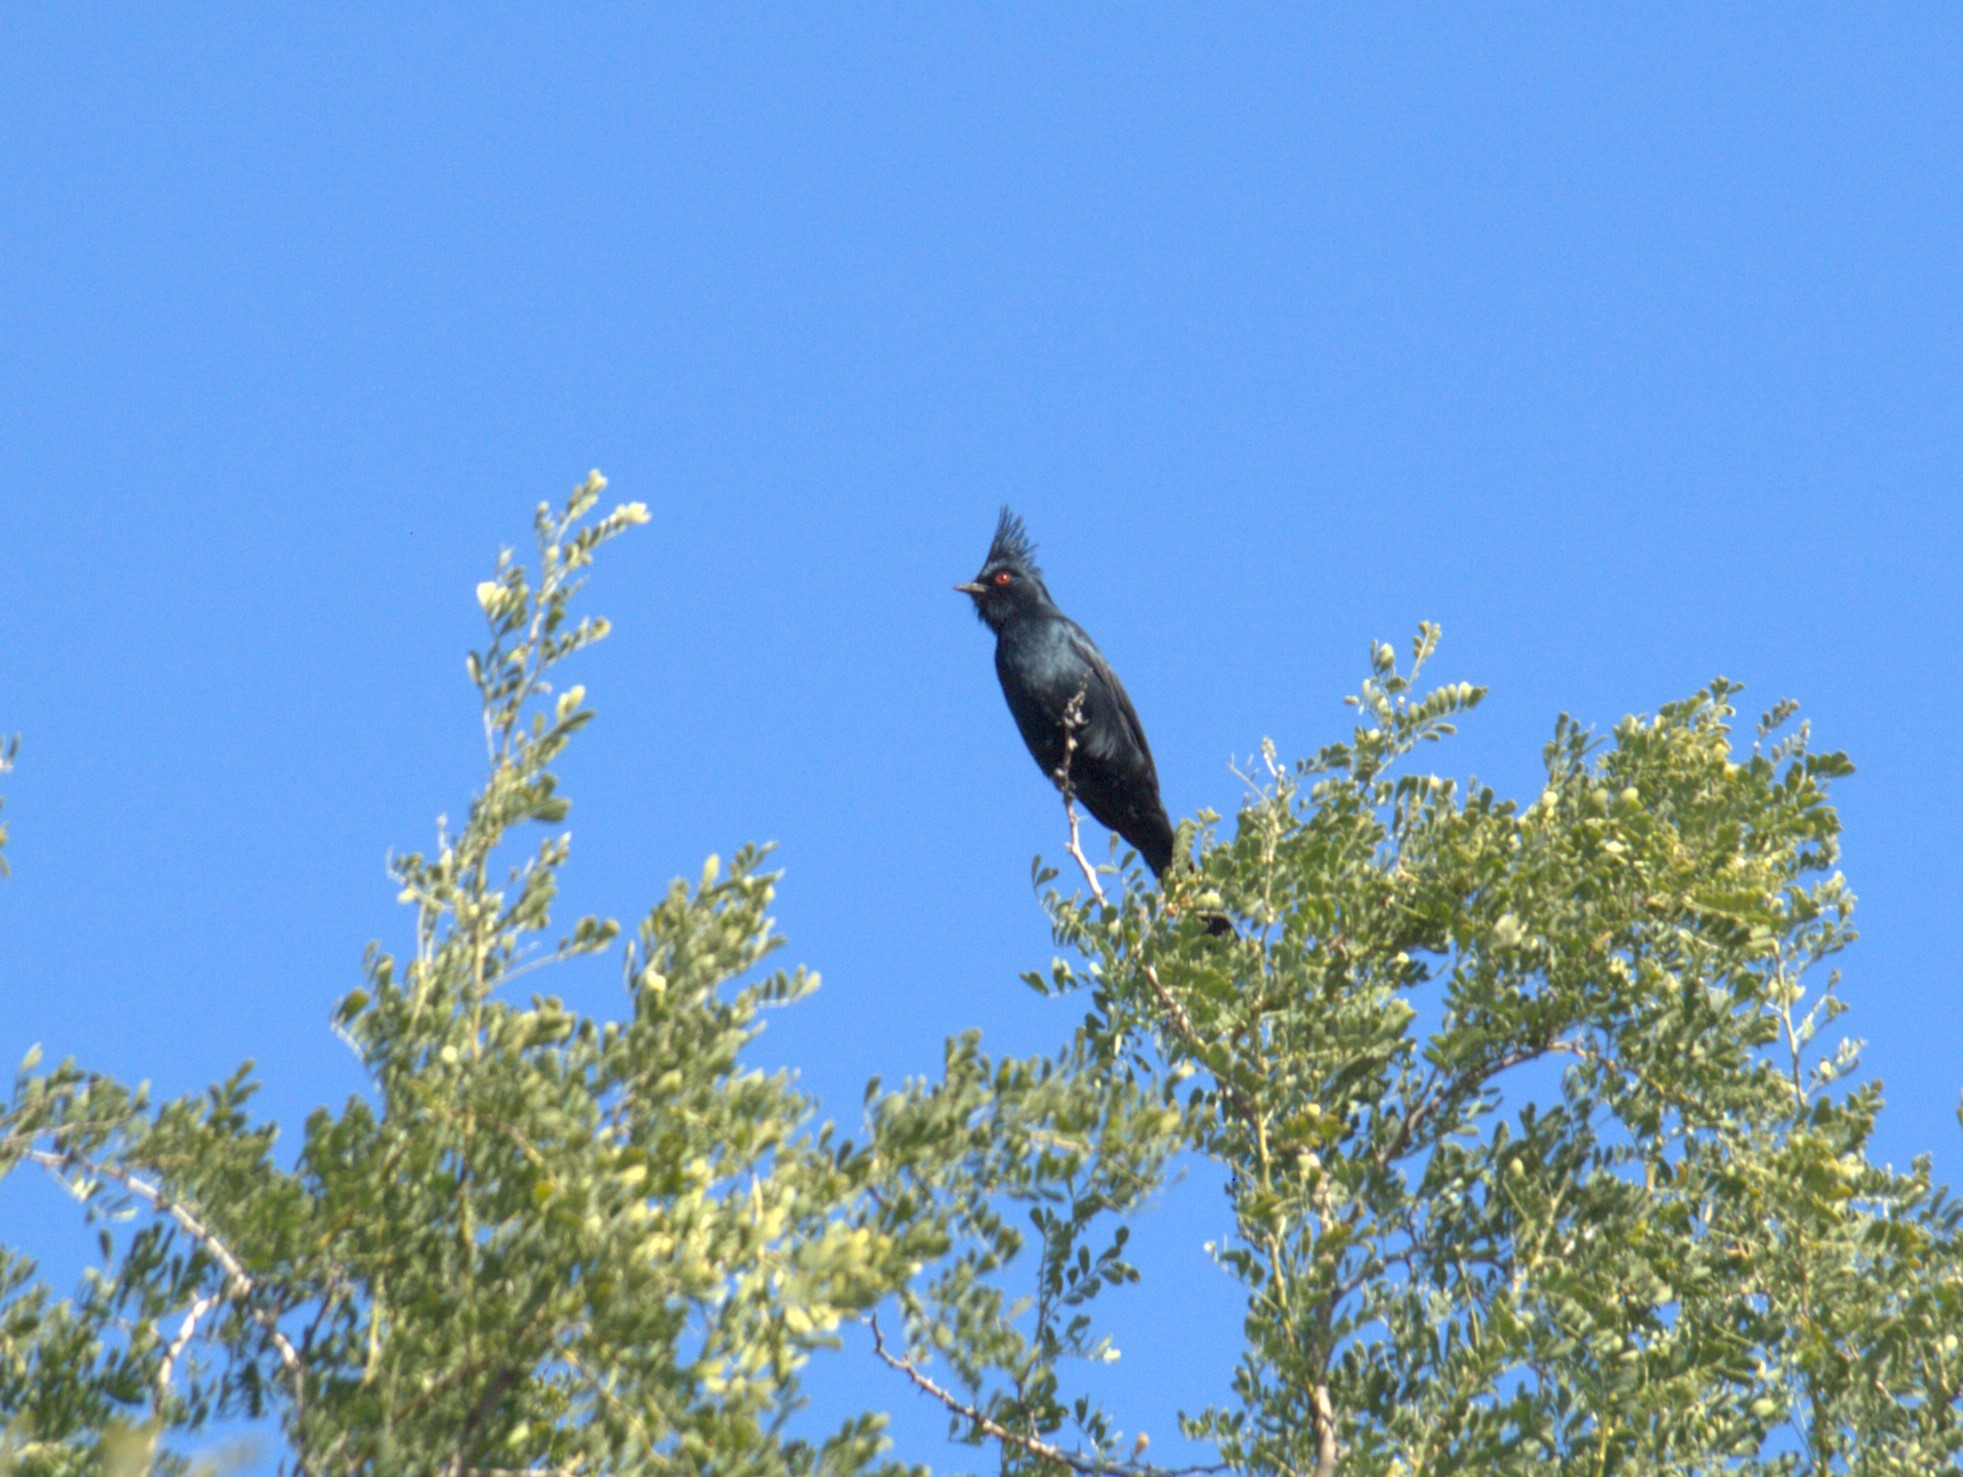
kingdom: Animalia
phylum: Chordata
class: Aves
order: Passeriformes
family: Ptilogonatidae
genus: Phainopepla
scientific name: Phainopepla nitens
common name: Phainopepla
